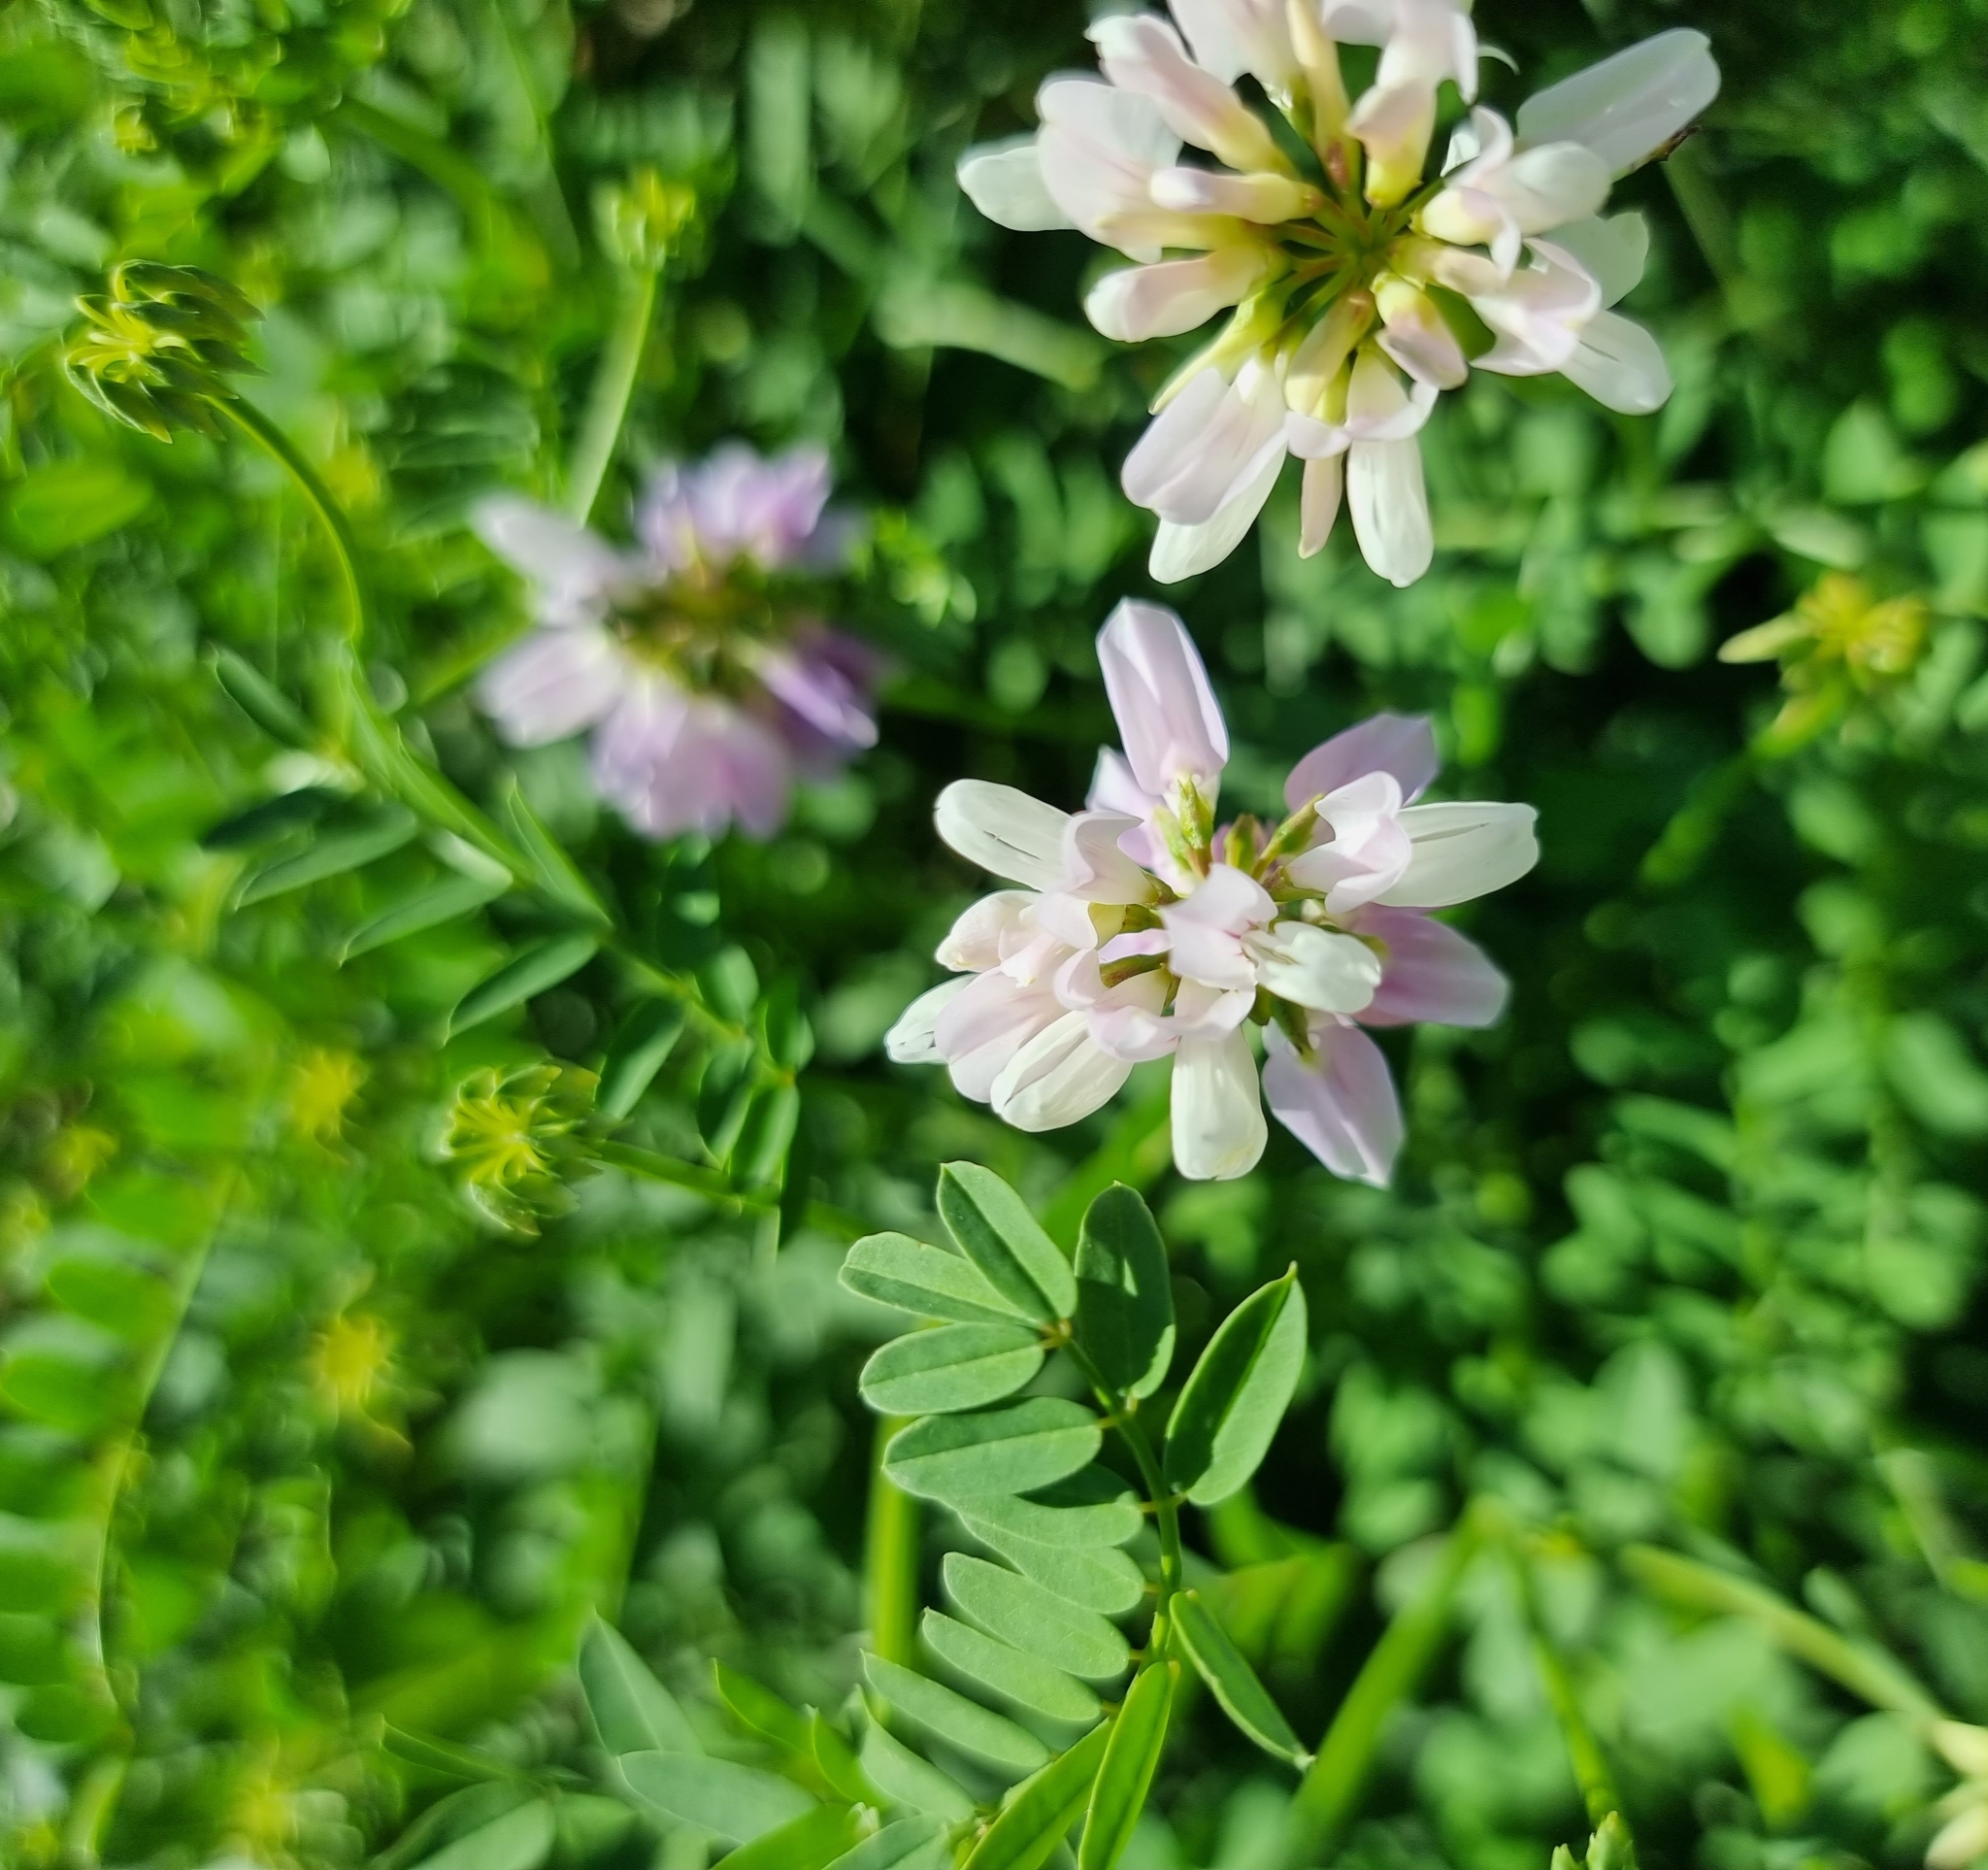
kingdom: Plantae
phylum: Tracheophyta
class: Magnoliopsida
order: Fabales
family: Fabaceae
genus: Coronilla
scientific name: Coronilla varia
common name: Crownvetch
